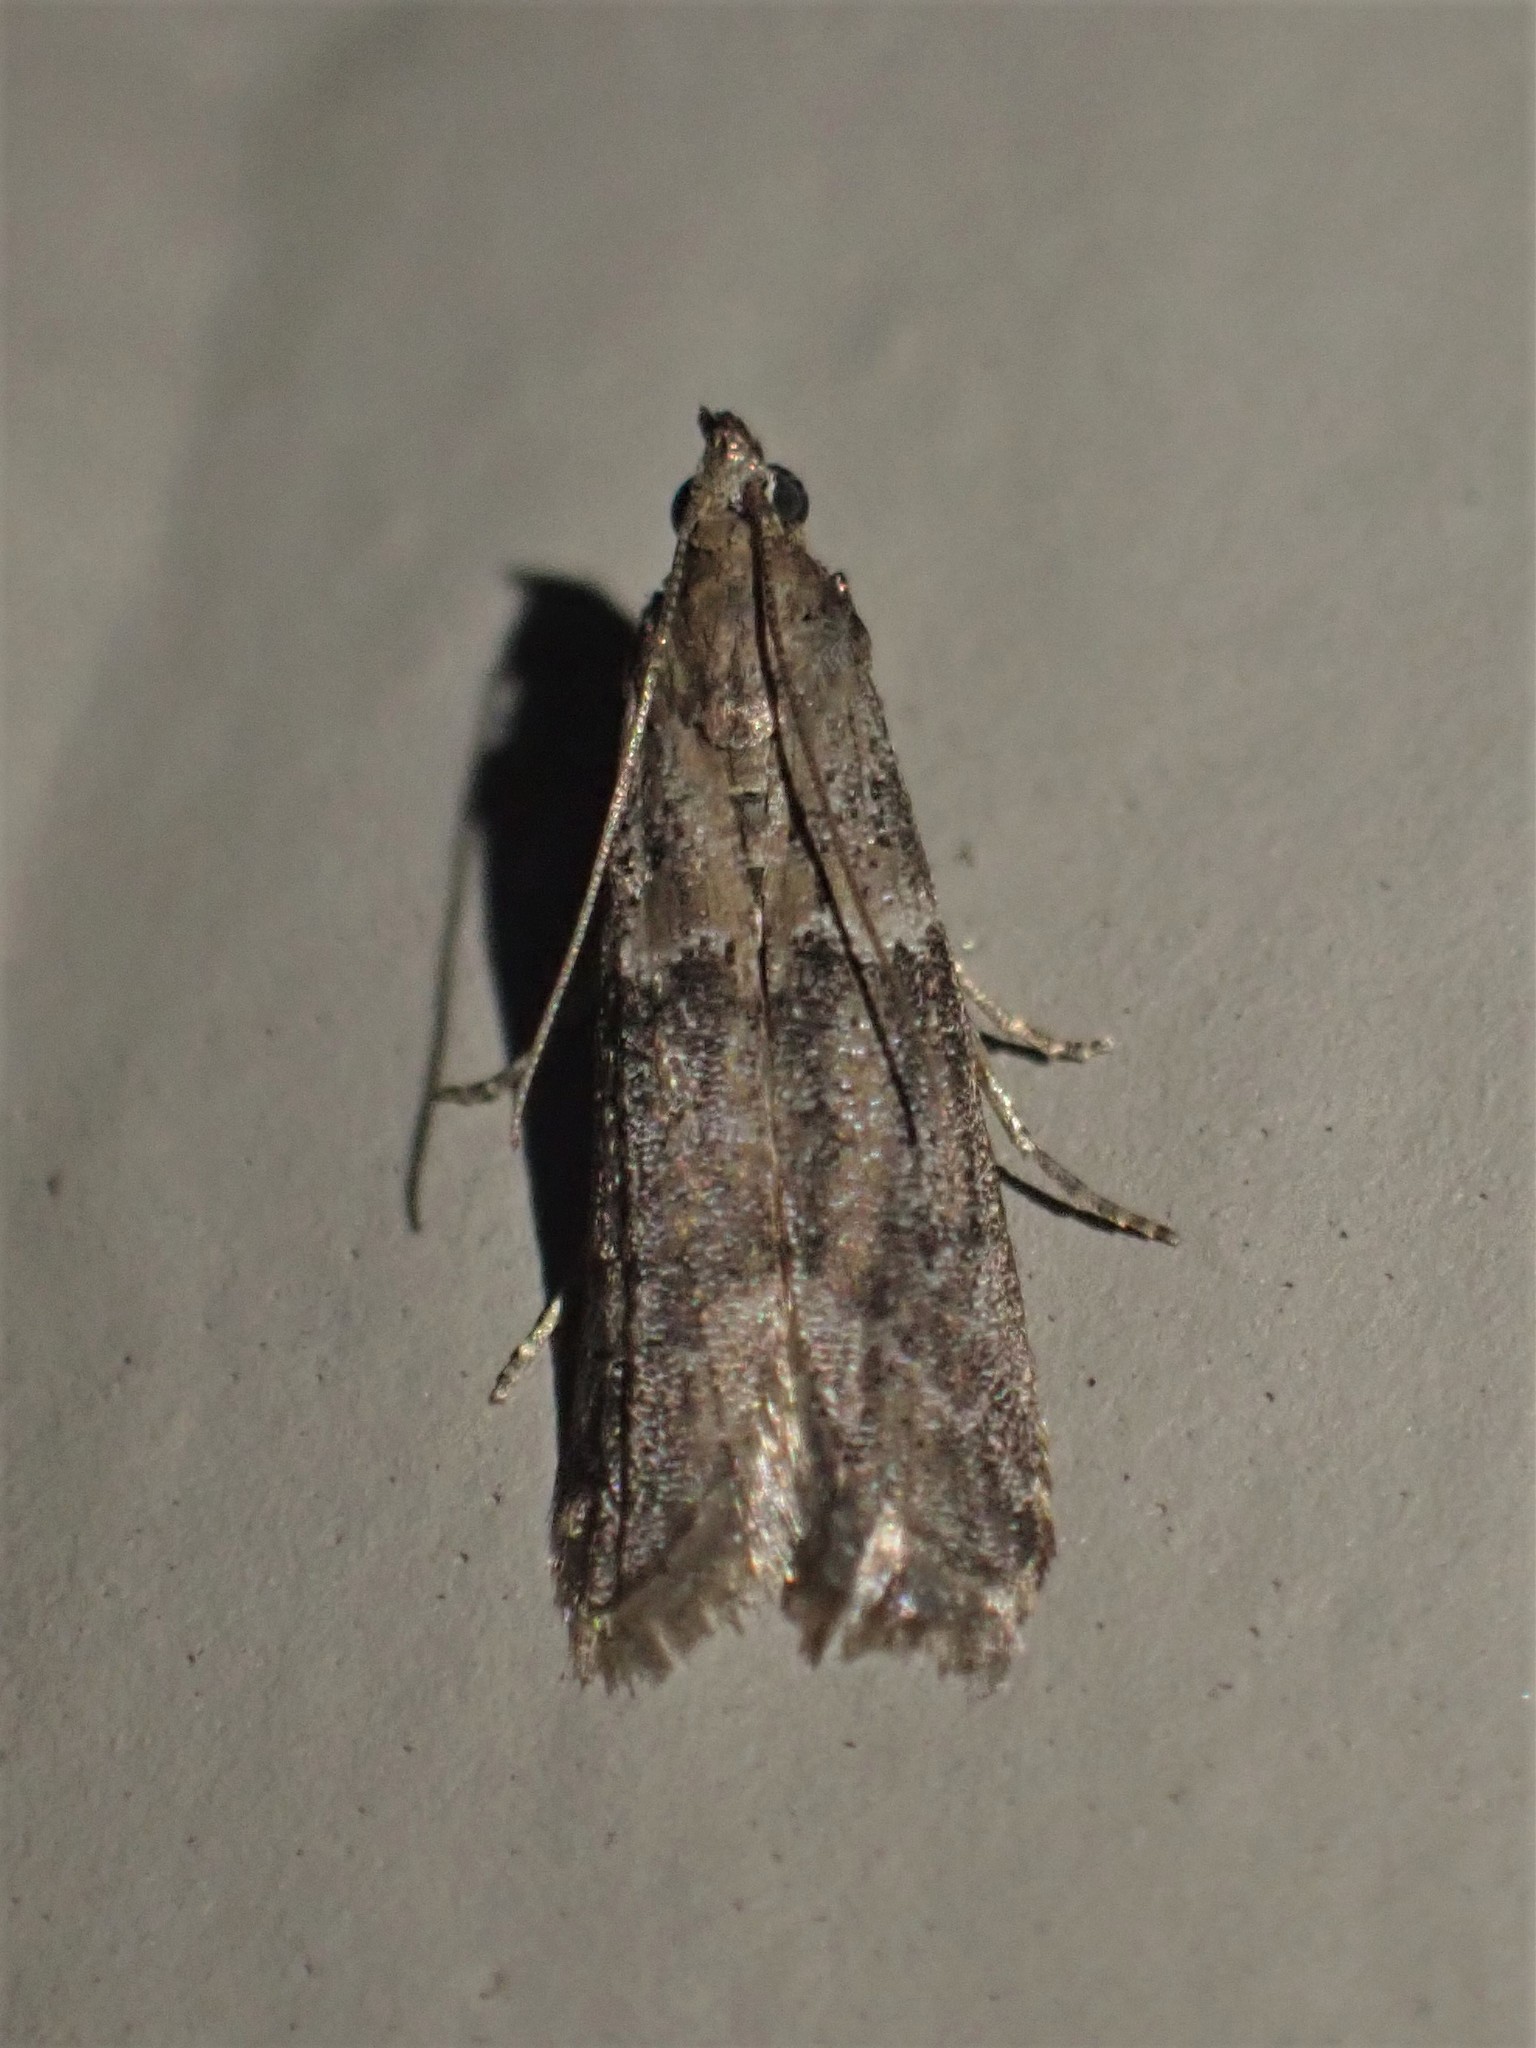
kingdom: Animalia
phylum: Arthropoda
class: Insecta
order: Lepidoptera
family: Pyralidae
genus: Ephestiodes
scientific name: Ephestiodes gilvescentella
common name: Moth
